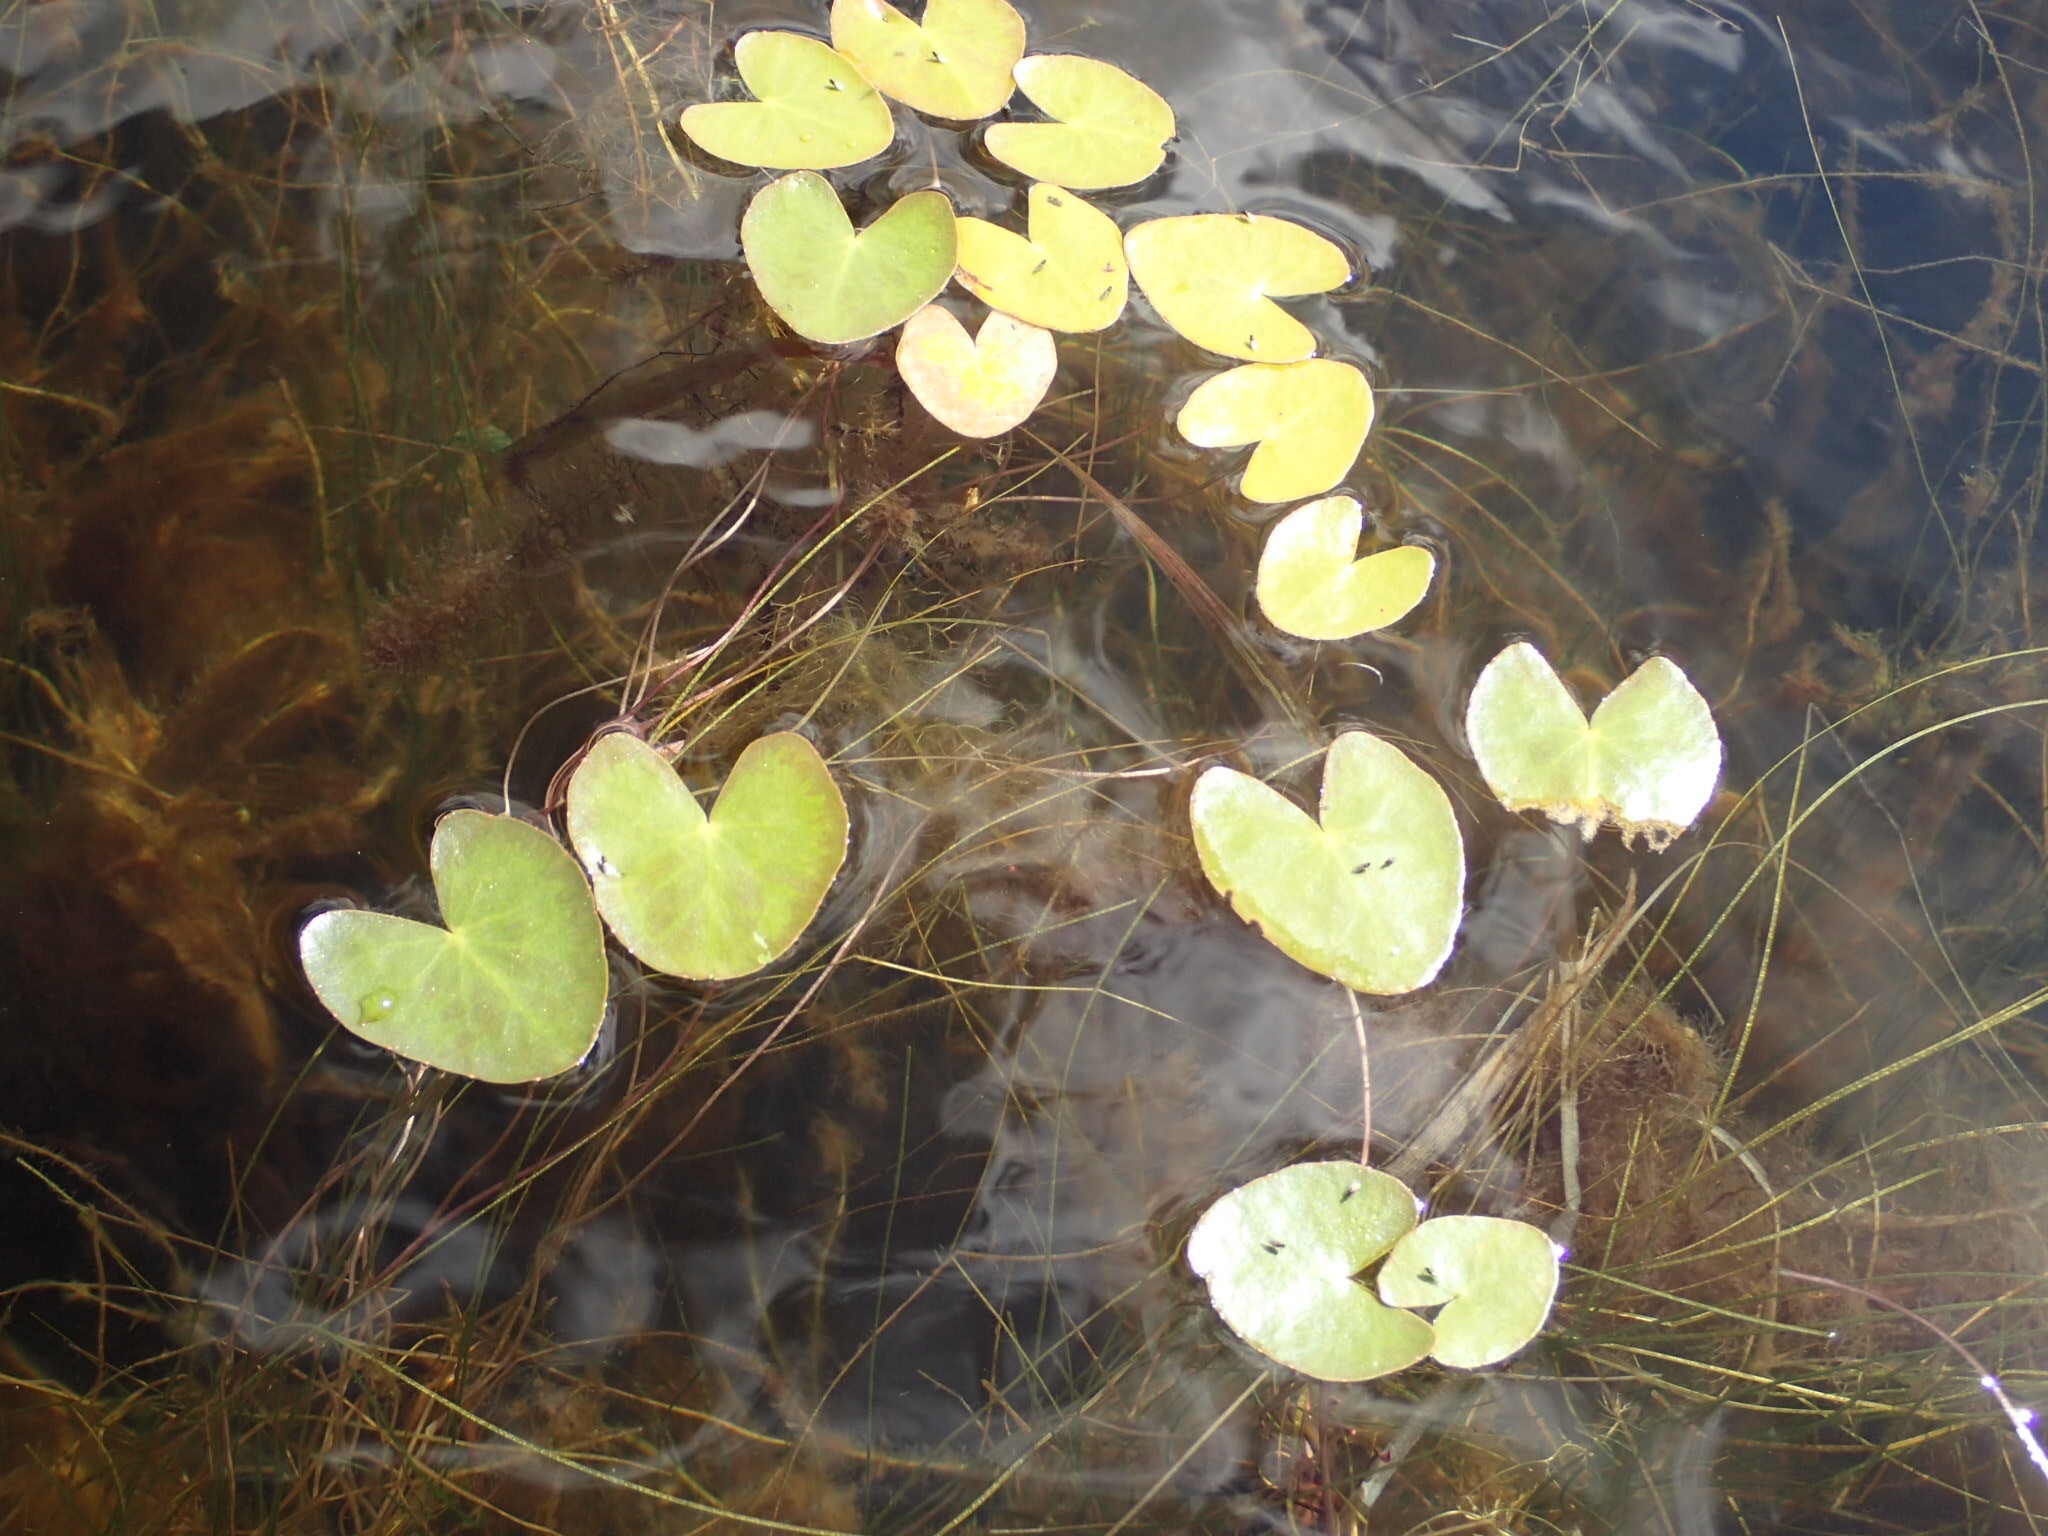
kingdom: Plantae
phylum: Tracheophyta
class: Magnoliopsida
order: Asterales
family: Menyanthaceae
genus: Nymphoides
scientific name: Nymphoides cordata
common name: Eight-angled floatingheart
